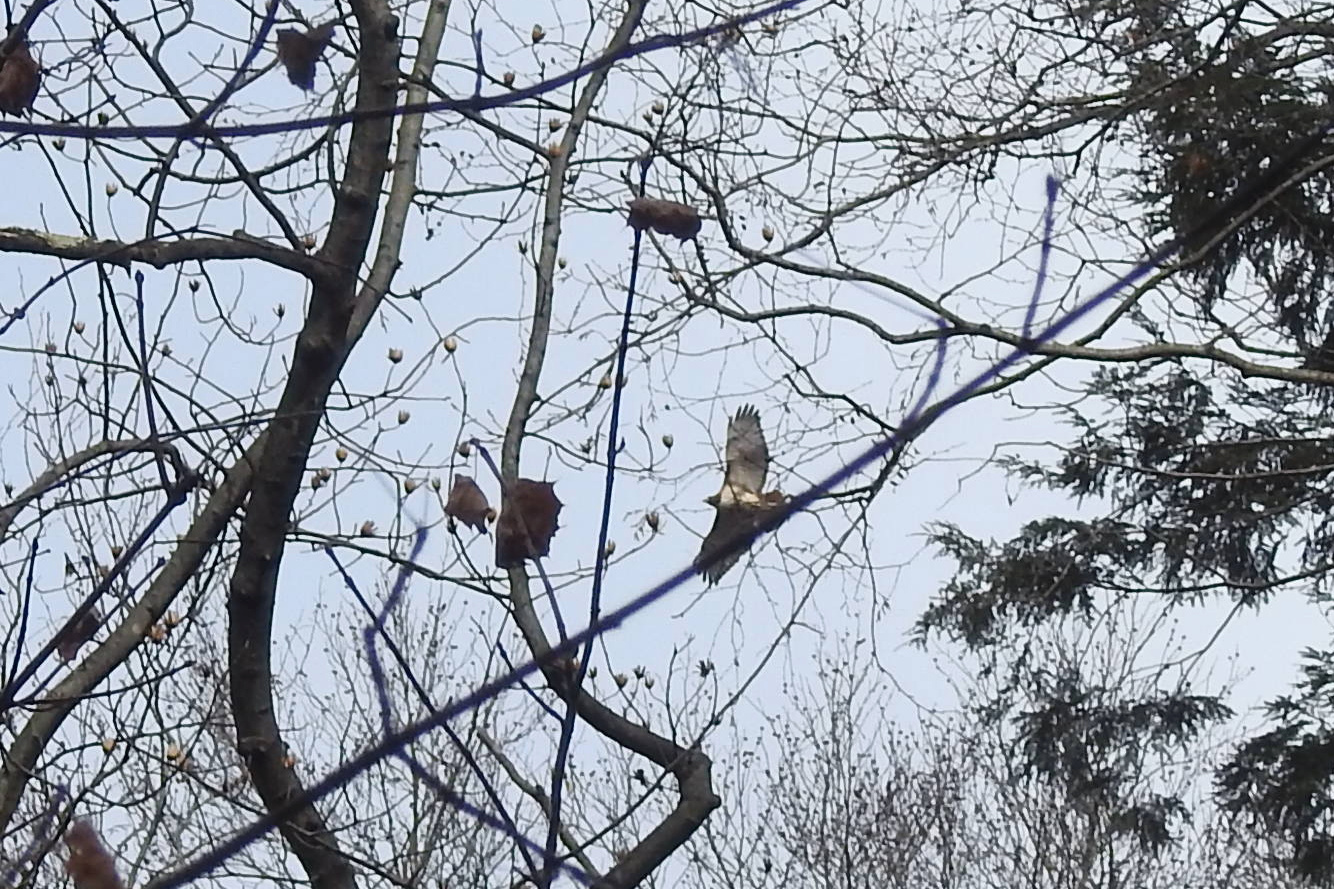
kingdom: Animalia
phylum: Chordata
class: Aves
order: Accipitriformes
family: Accipitridae
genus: Buteo
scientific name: Buteo jamaicensis
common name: Red-tailed hawk
